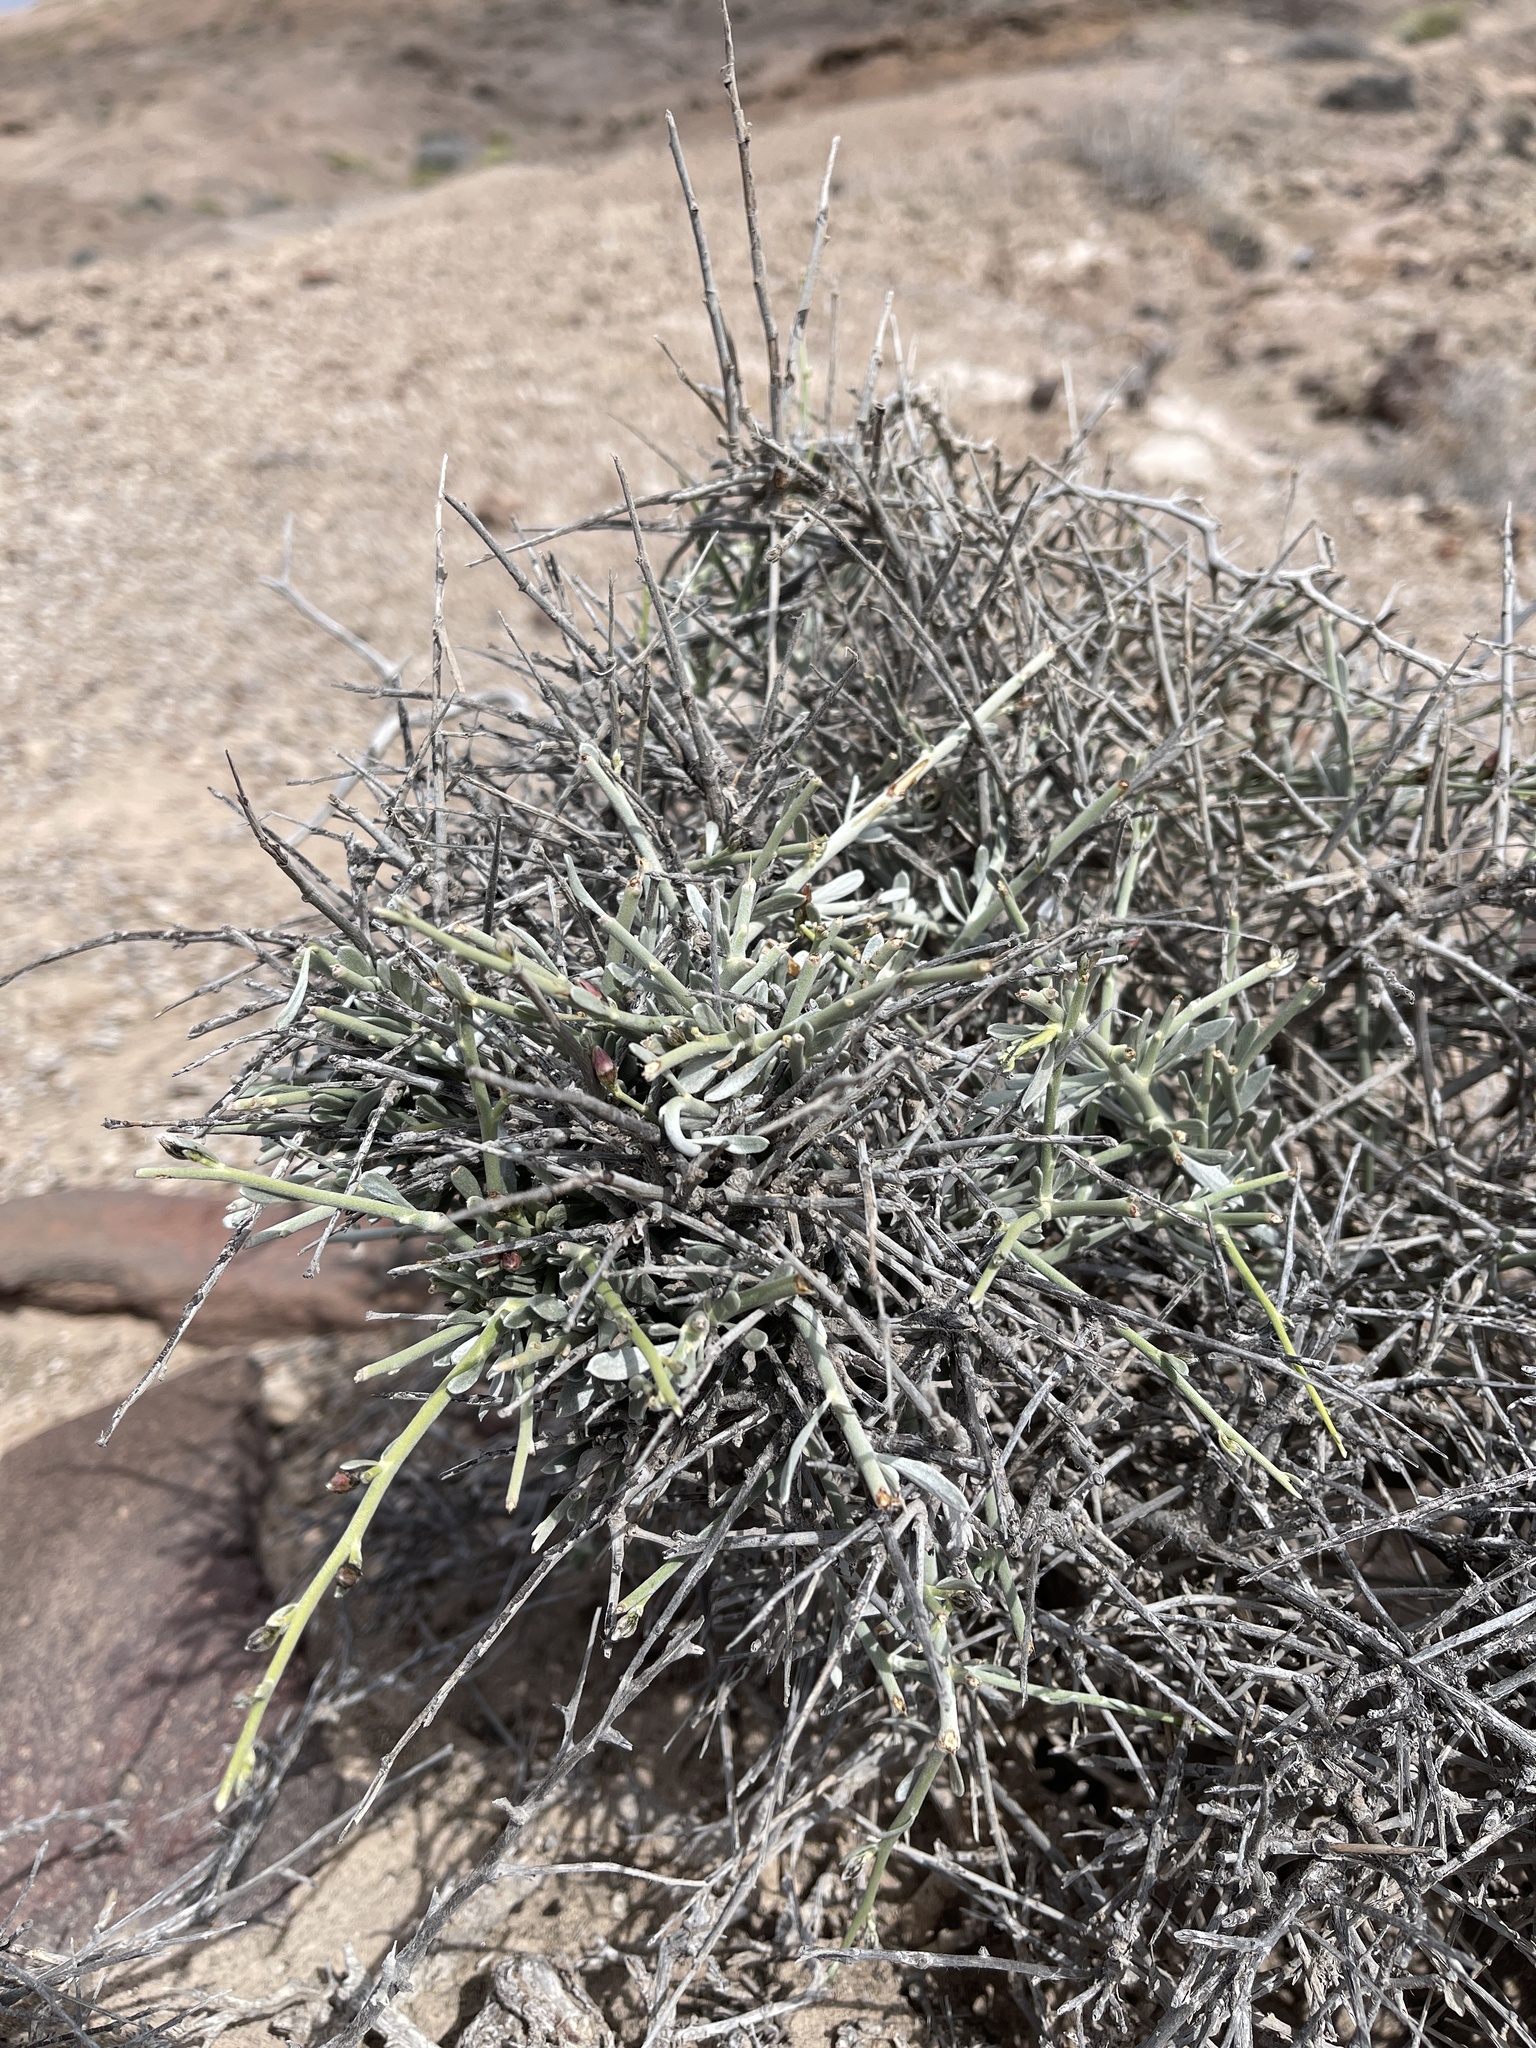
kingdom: Plantae
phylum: Tracheophyta
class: Magnoliopsida
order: Solanales
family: Convolvulaceae
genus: Convolvulus
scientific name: Convolvulus caput-medusae
